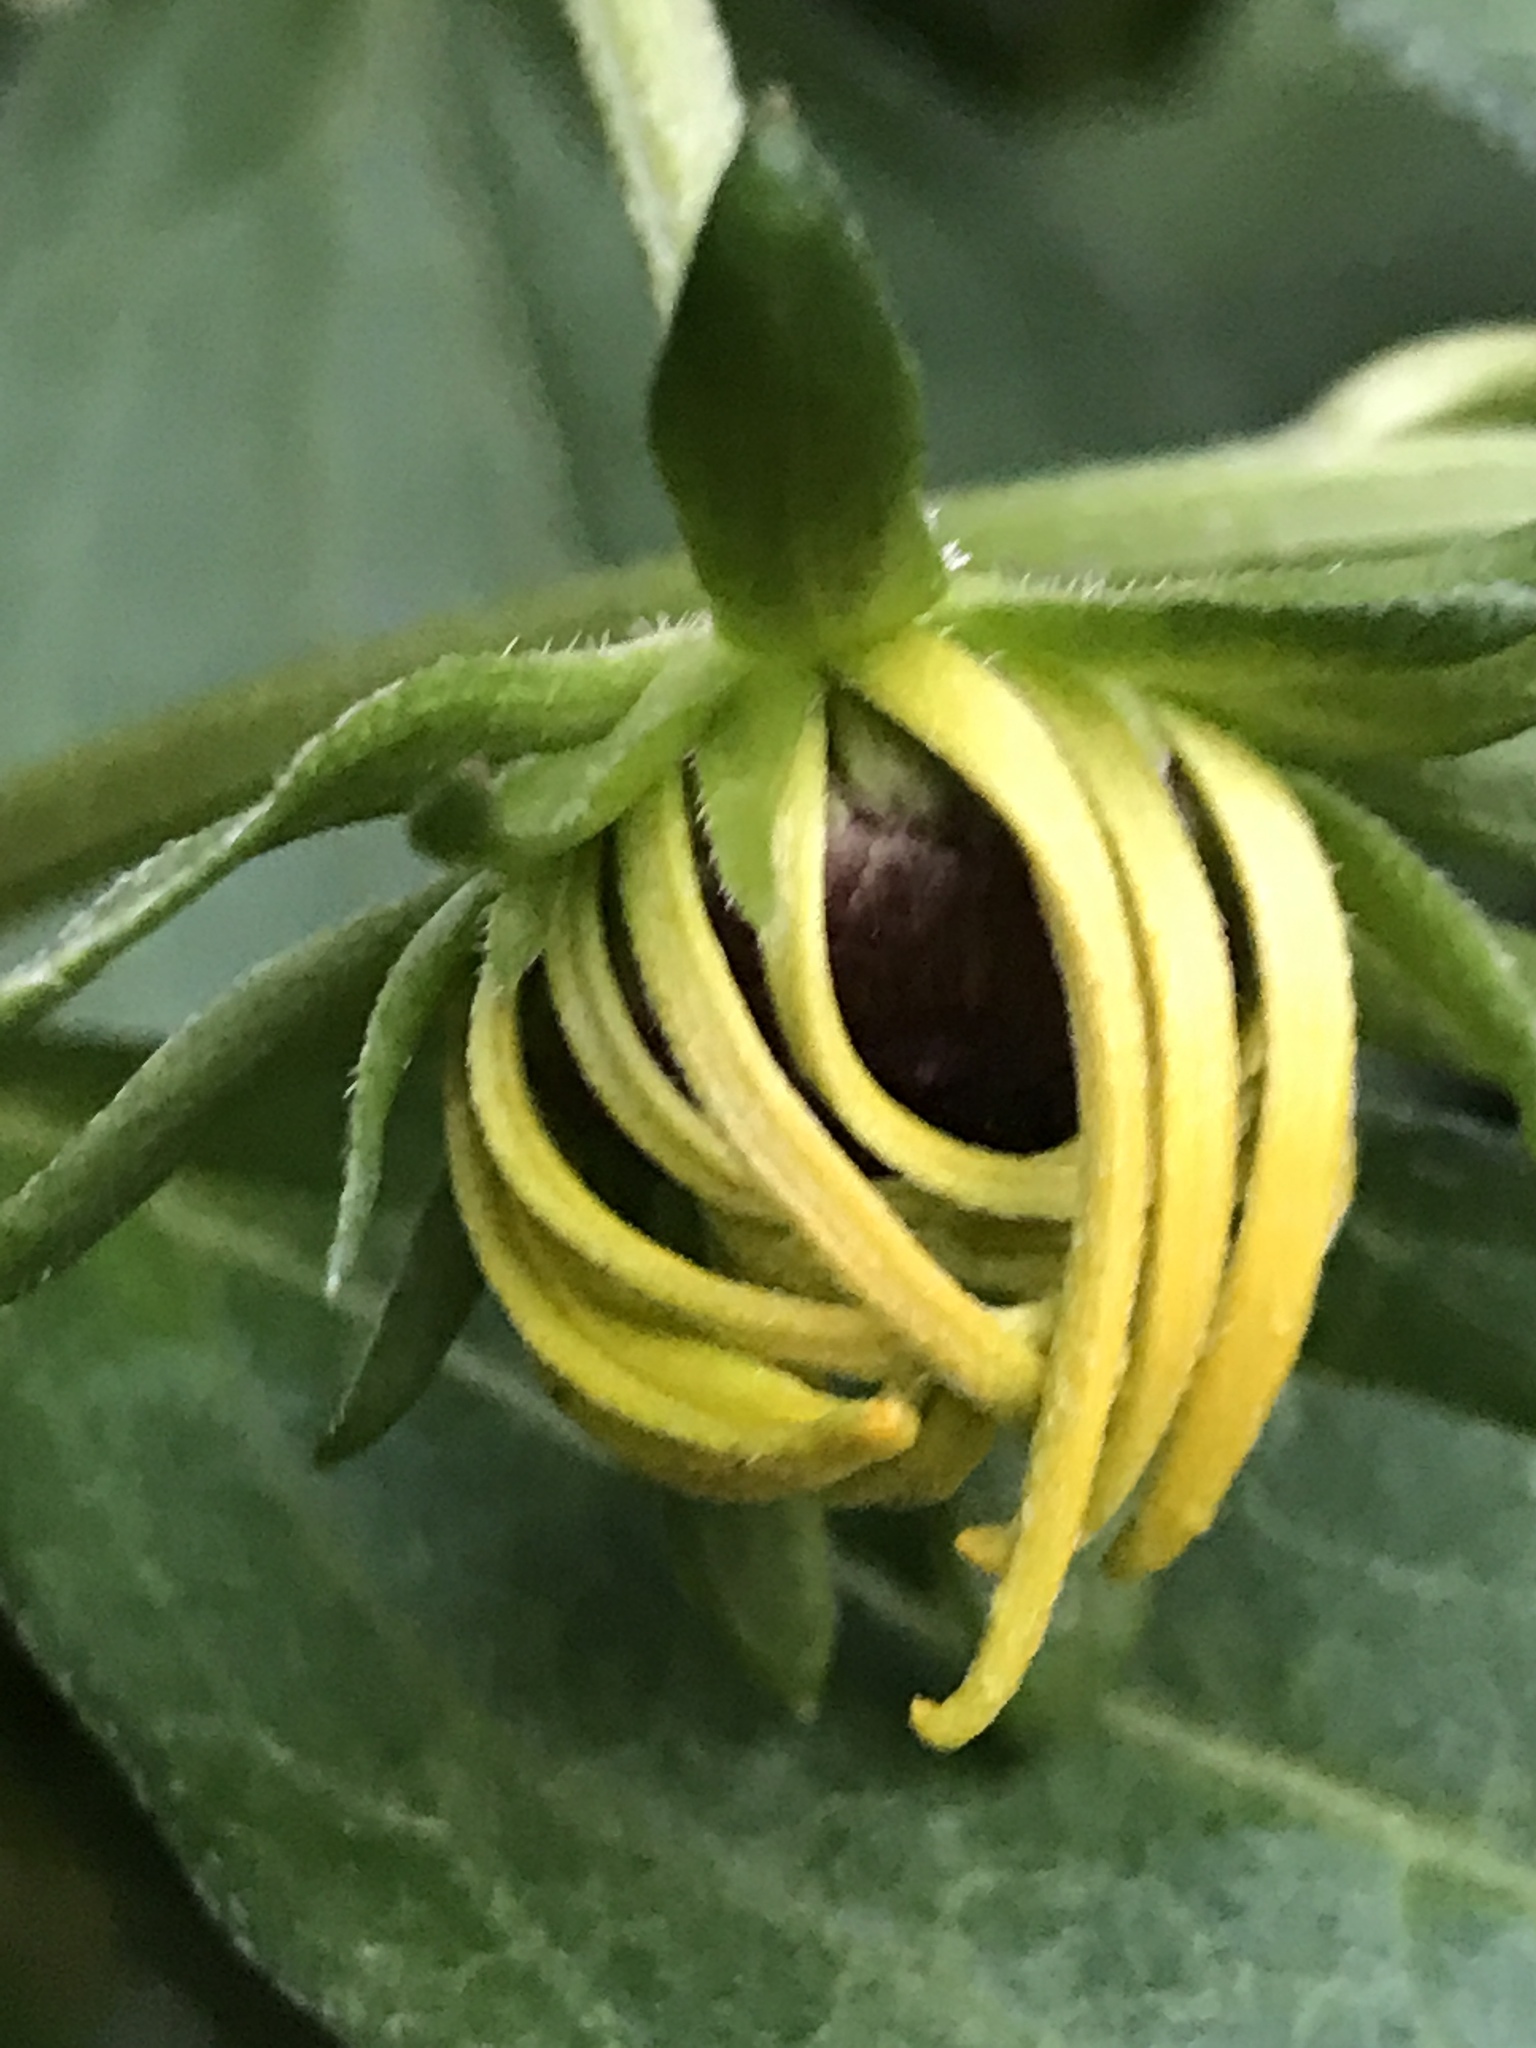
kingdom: Plantae
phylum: Tracheophyta
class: Magnoliopsida
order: Asterales
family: Asteraceae
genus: Rudbeckia
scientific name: Rudbeckia hirta
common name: Black-eyed-susan
